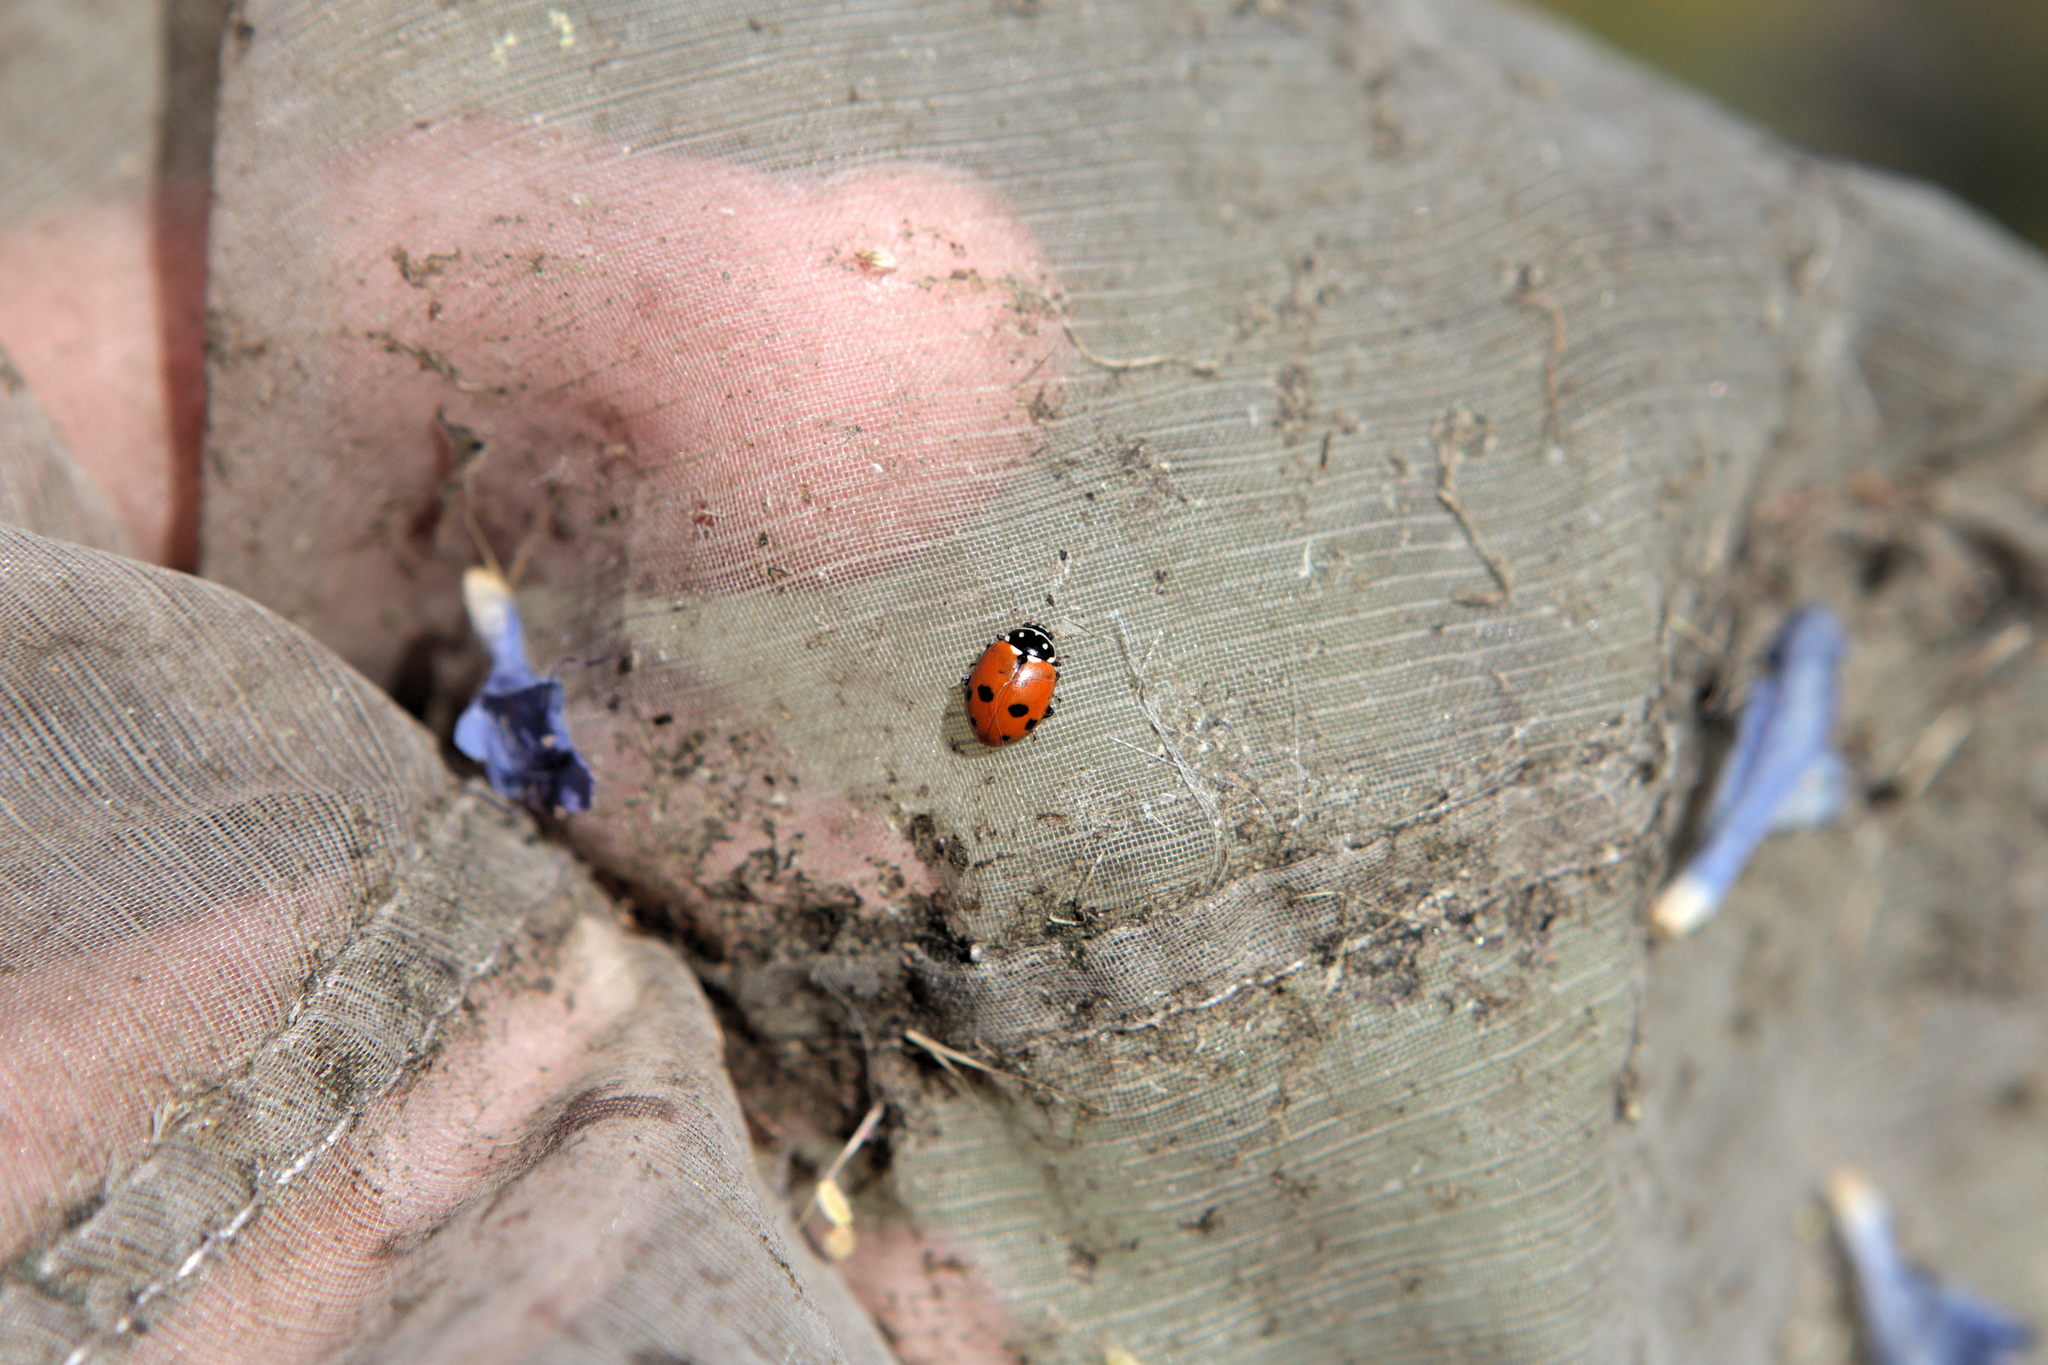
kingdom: Animalia
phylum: Arthropoda
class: Insecta
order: Coleoptera
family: Coccinellidae
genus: Hippodamia
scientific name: Hippodamia variegata
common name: Ladybird beetle
